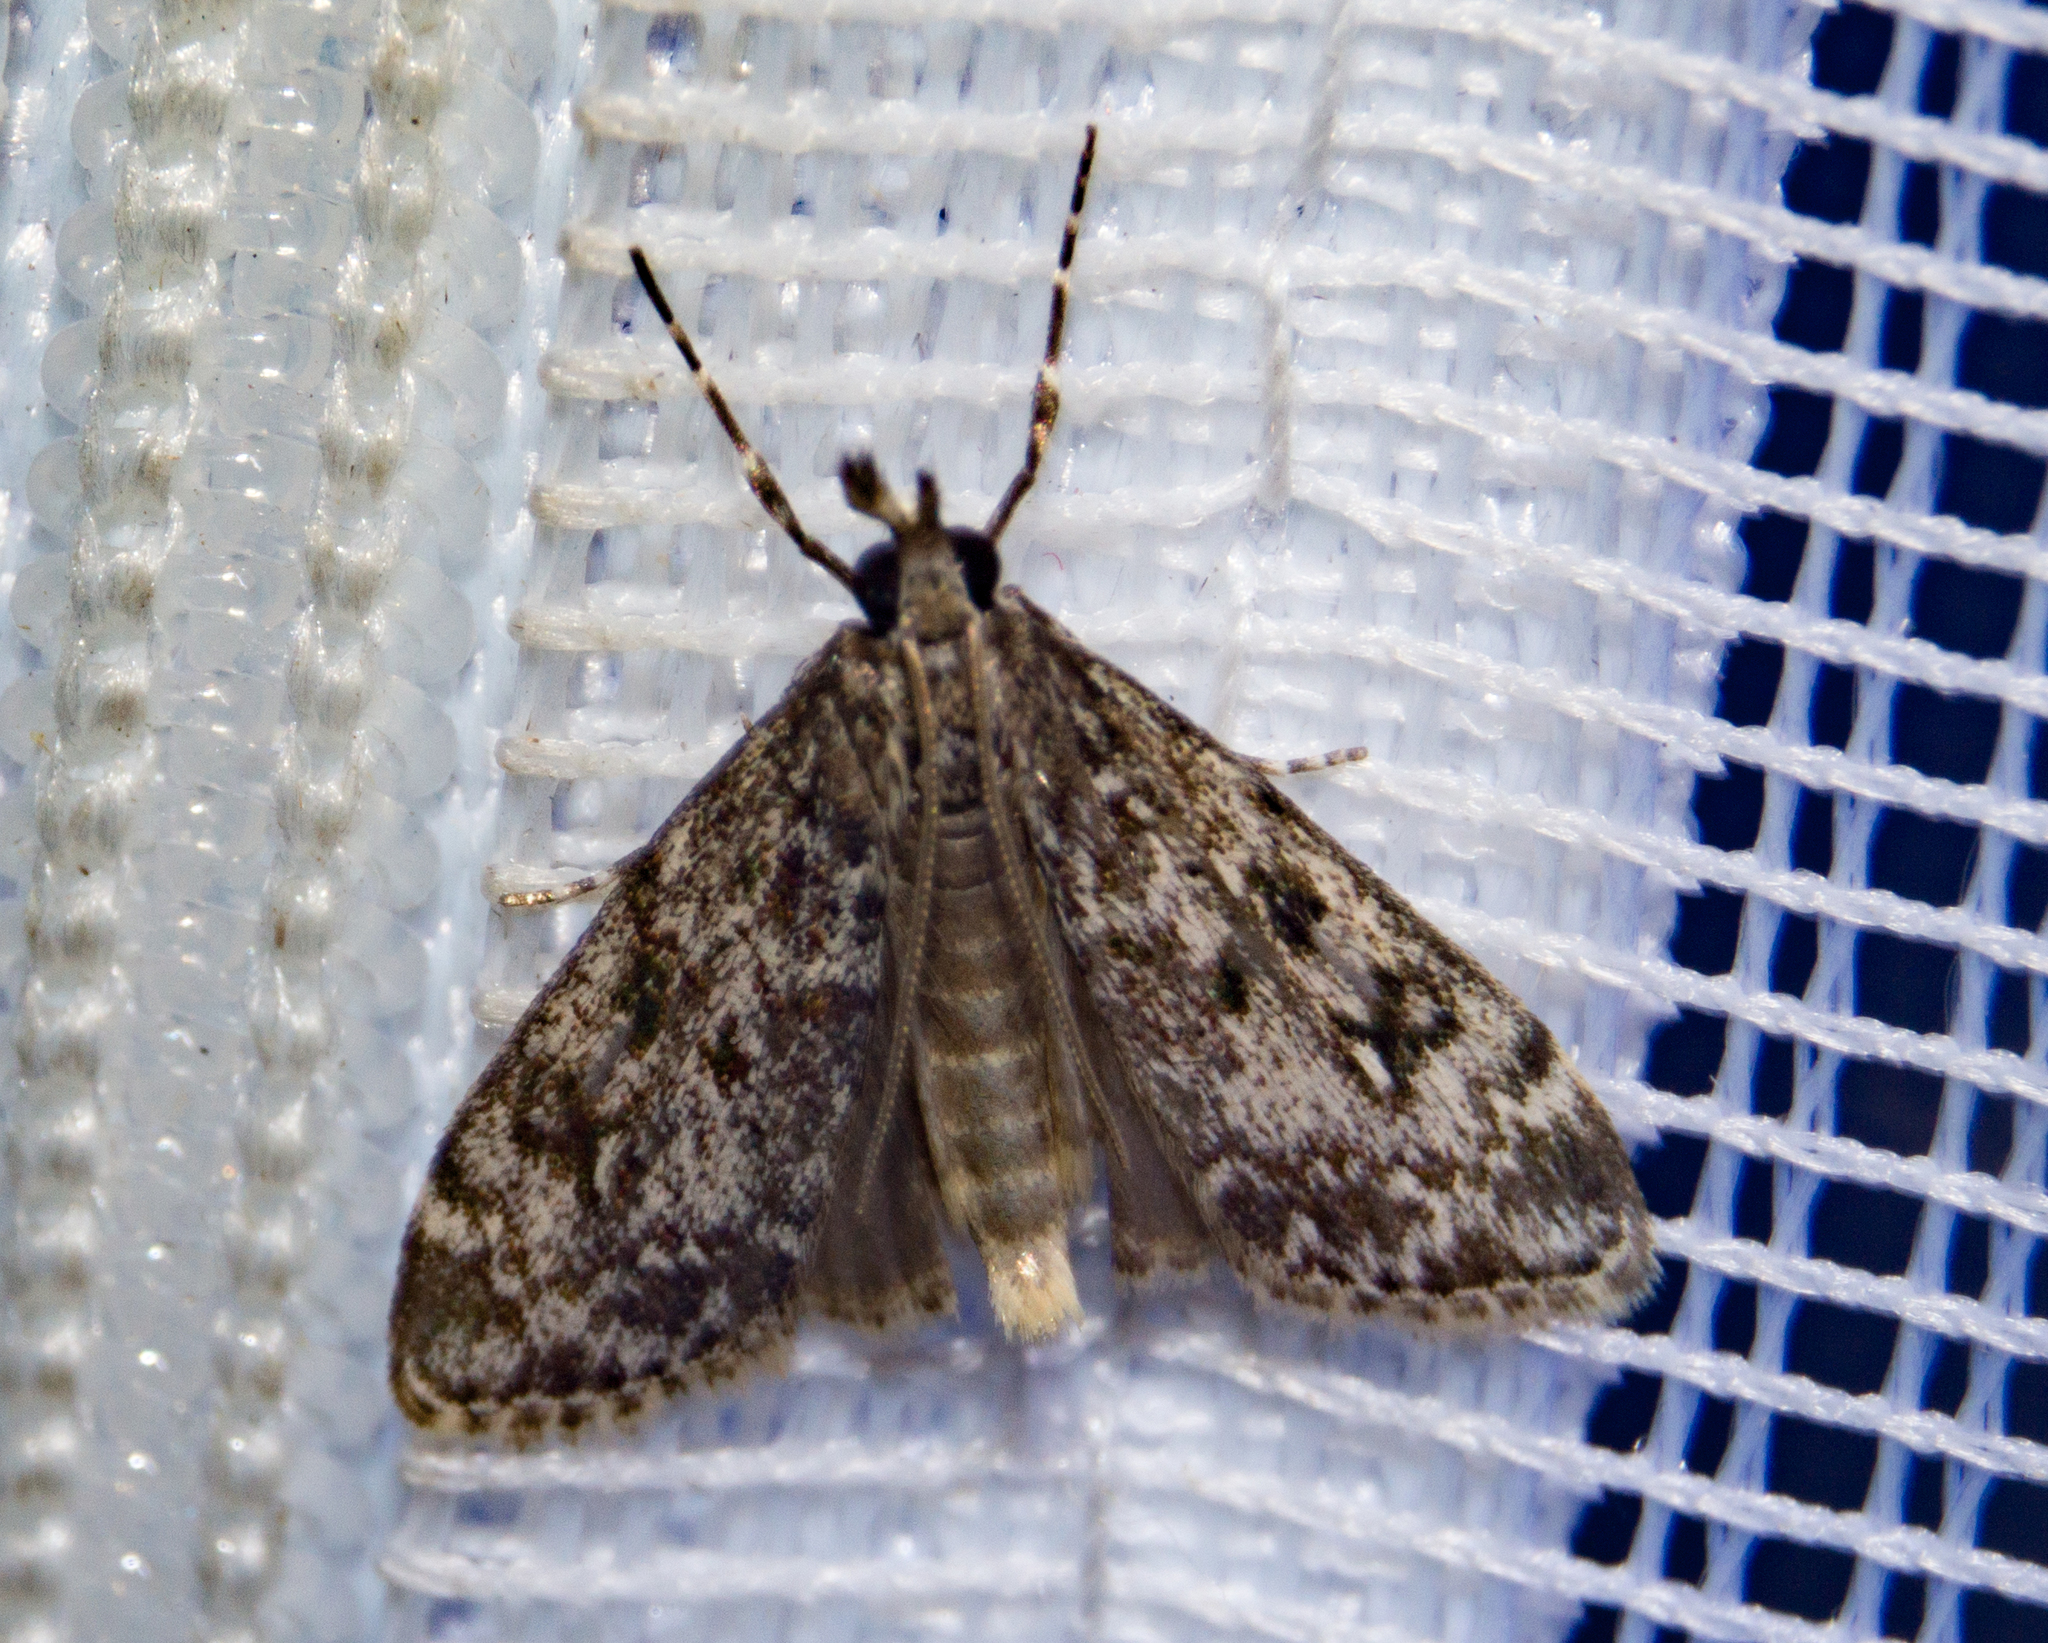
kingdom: Animalia
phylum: Arthropoda
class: Insecta
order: Lepidoptera
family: Crambidae
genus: Eudonia
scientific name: Eudonia lacustrata
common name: Little grey
